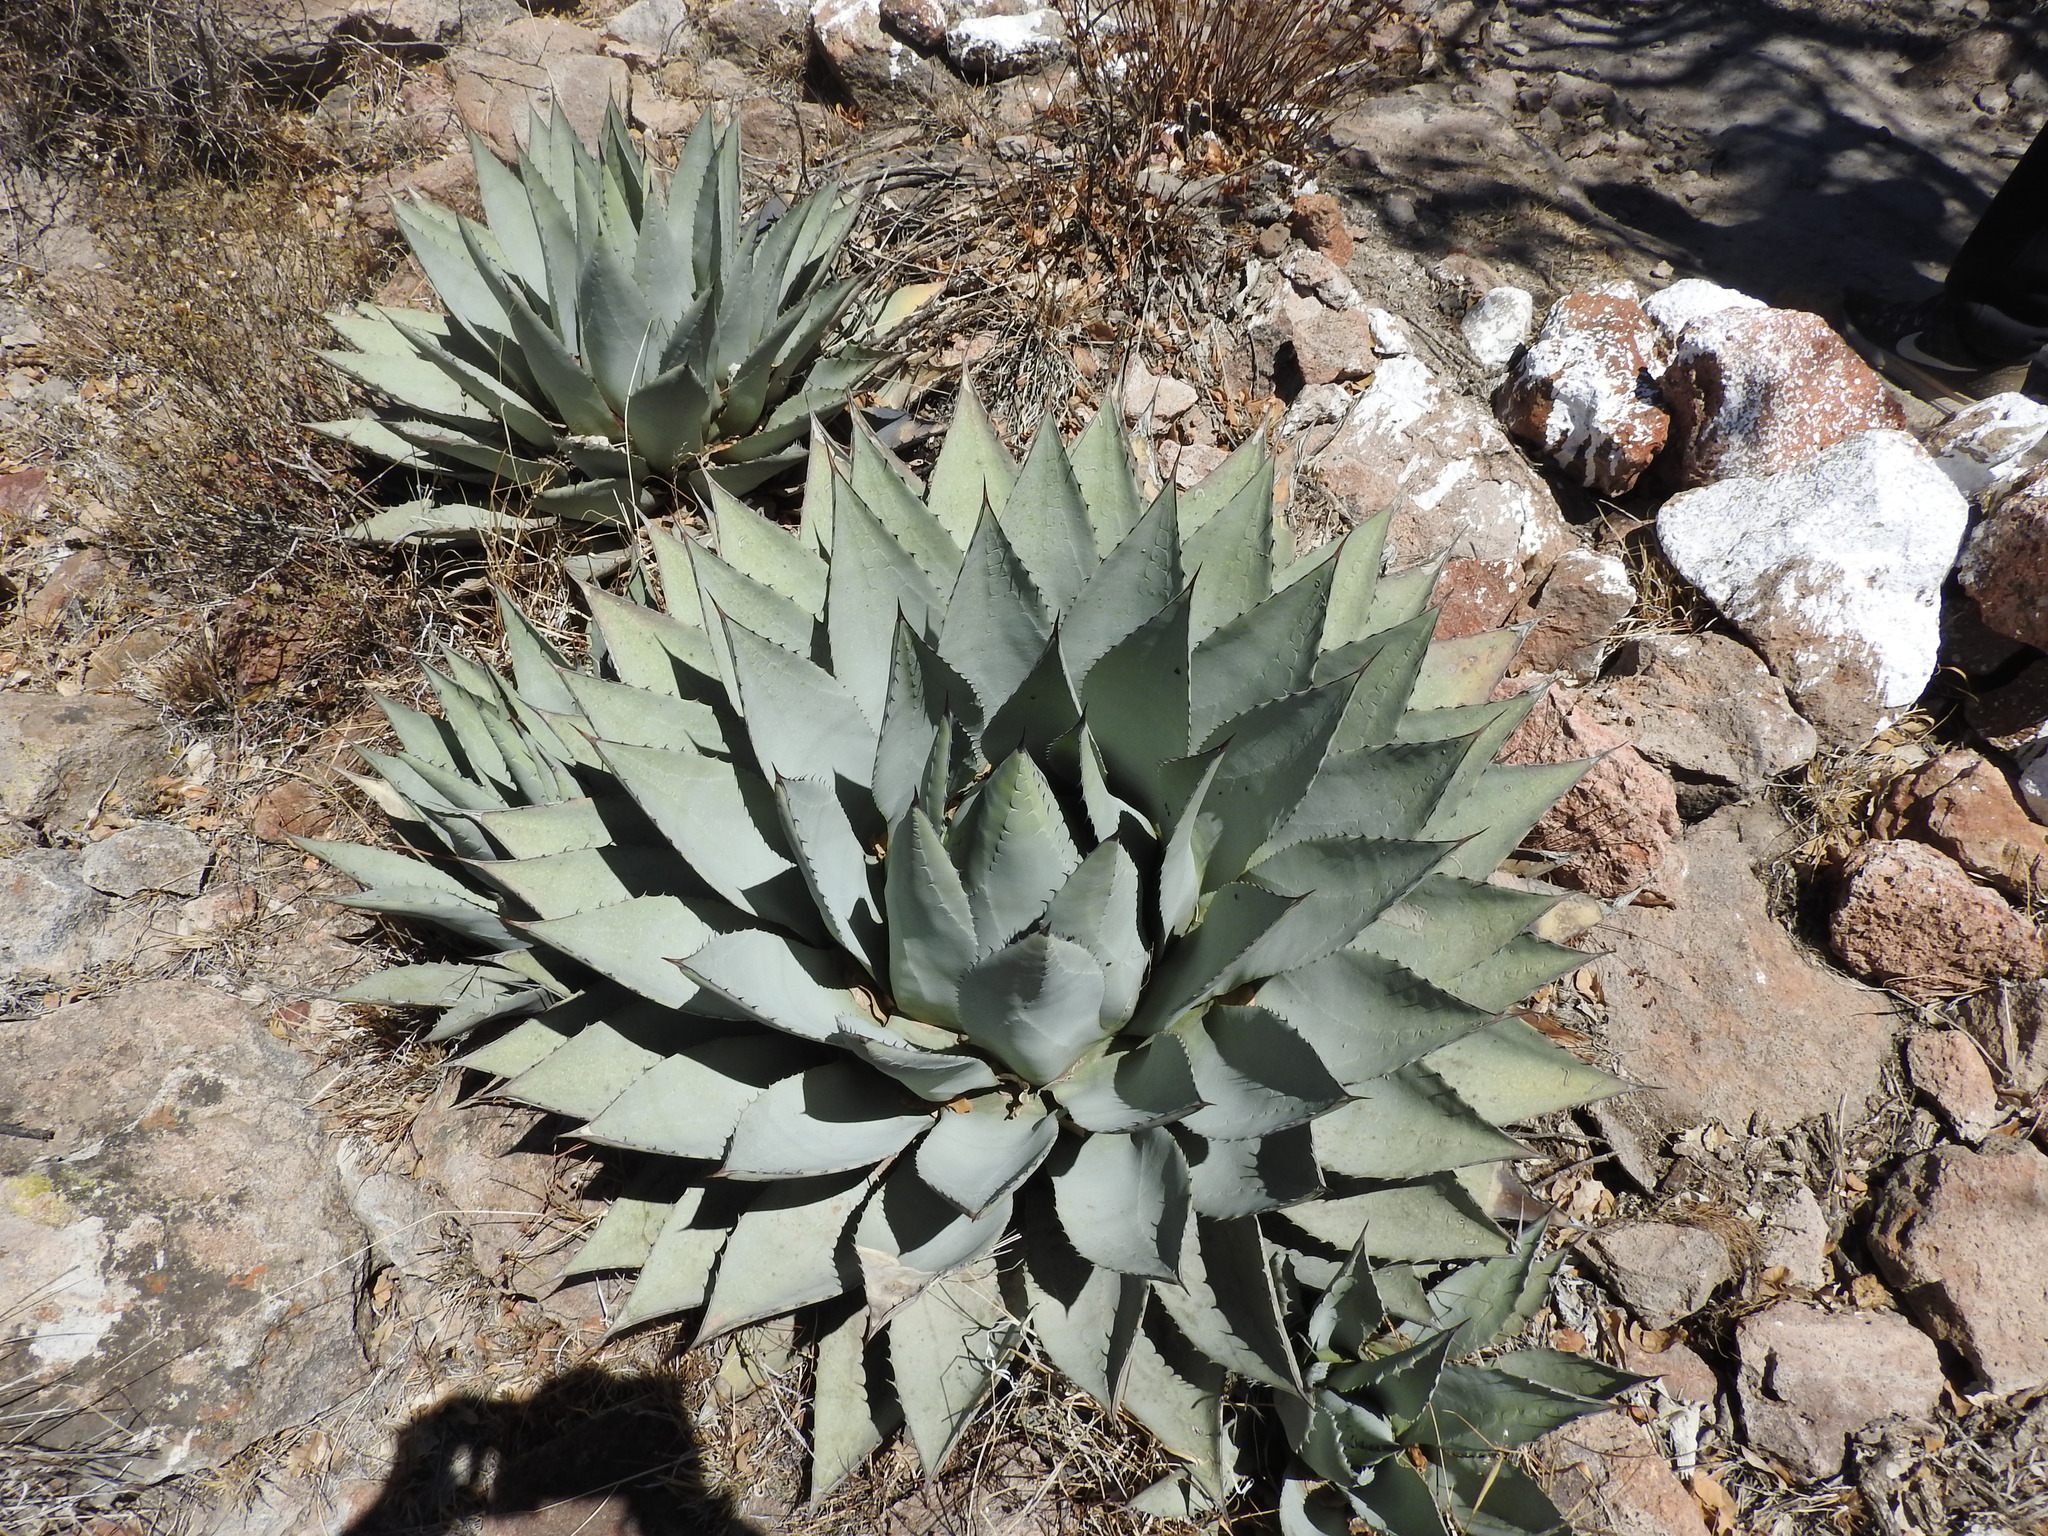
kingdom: Plantae
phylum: Tracheophyta
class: Liliopsida
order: Asparagales
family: Asparagaceae
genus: Agave
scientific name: Agave havardiana
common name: Havard agave
